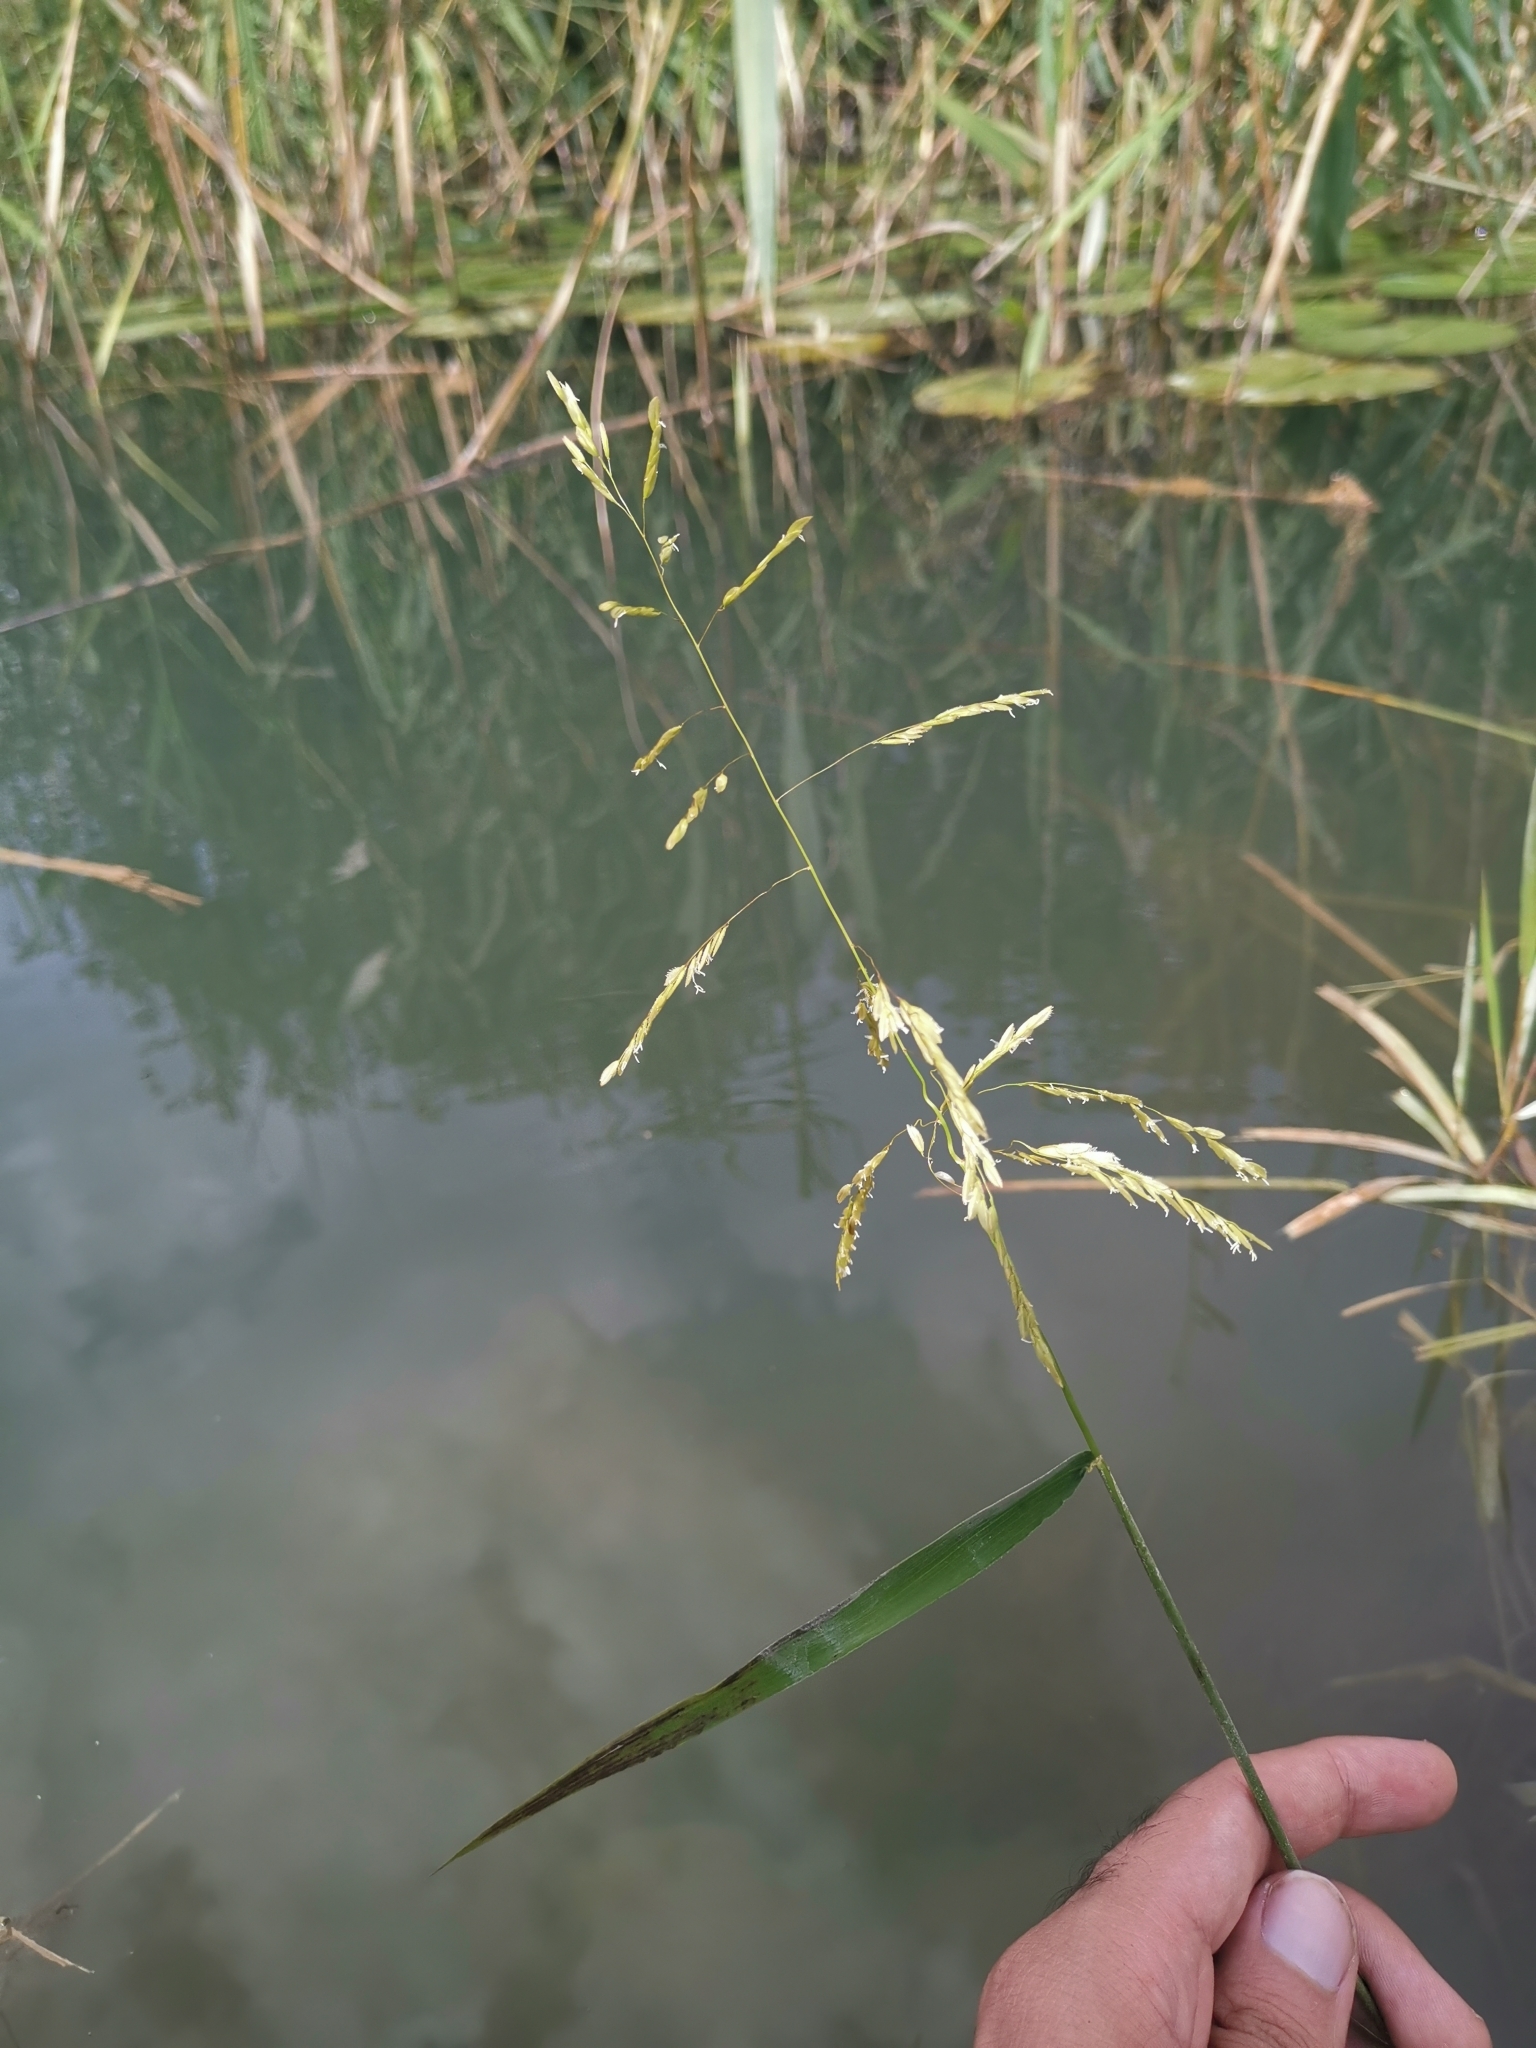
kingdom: Plantae
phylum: Tracheophyta
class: Liliopsida
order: Poales
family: Poaceae
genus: Leersia
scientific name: Leersia oryzoides
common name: Cut-grass
